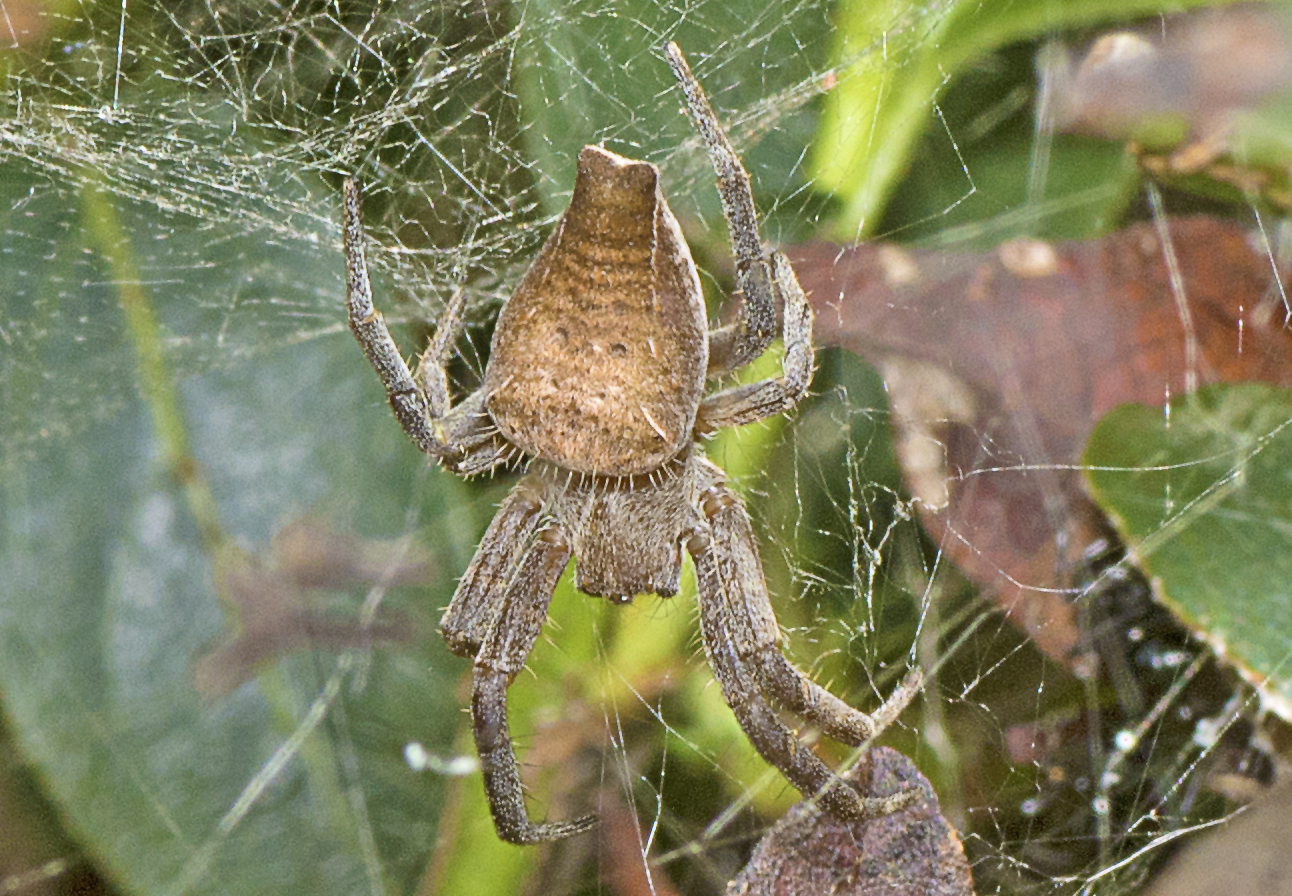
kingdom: Animalia
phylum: Arthropoda
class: Arachnida
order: Araneae
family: Araneidae
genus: Cyrtophora
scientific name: Cyrtophora exanthematica
